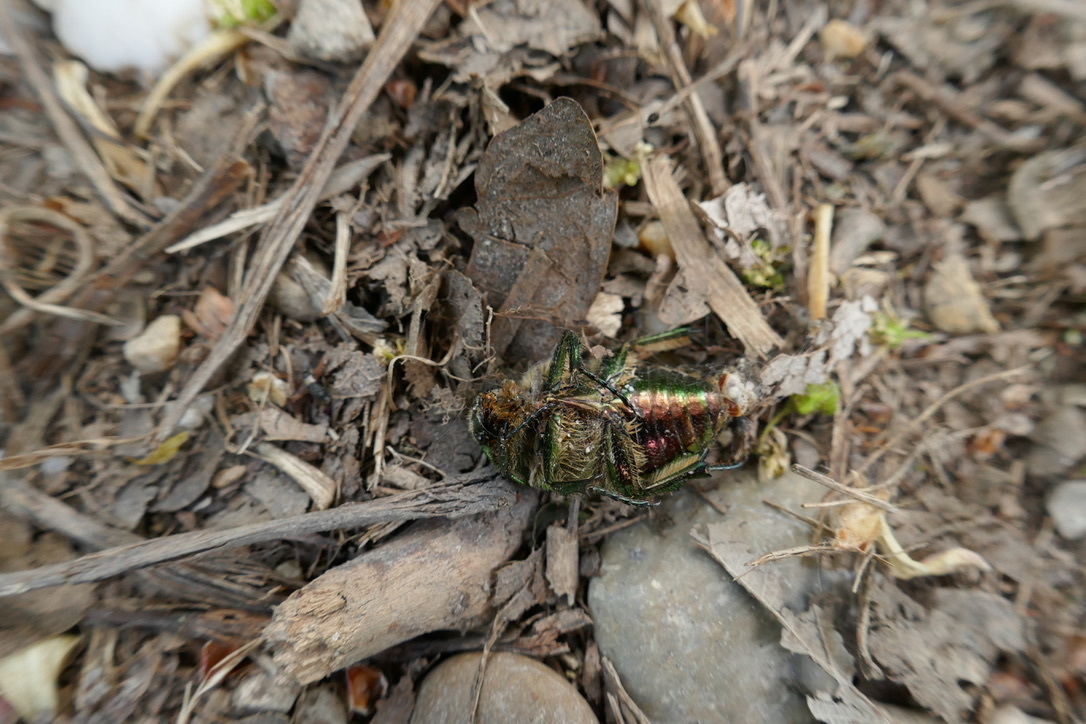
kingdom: Animalia
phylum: Arthropoda
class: Insecta
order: Coleoptera
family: Scarabaeidae
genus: Cetonia
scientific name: Cetonia aurata
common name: Rose chafer
